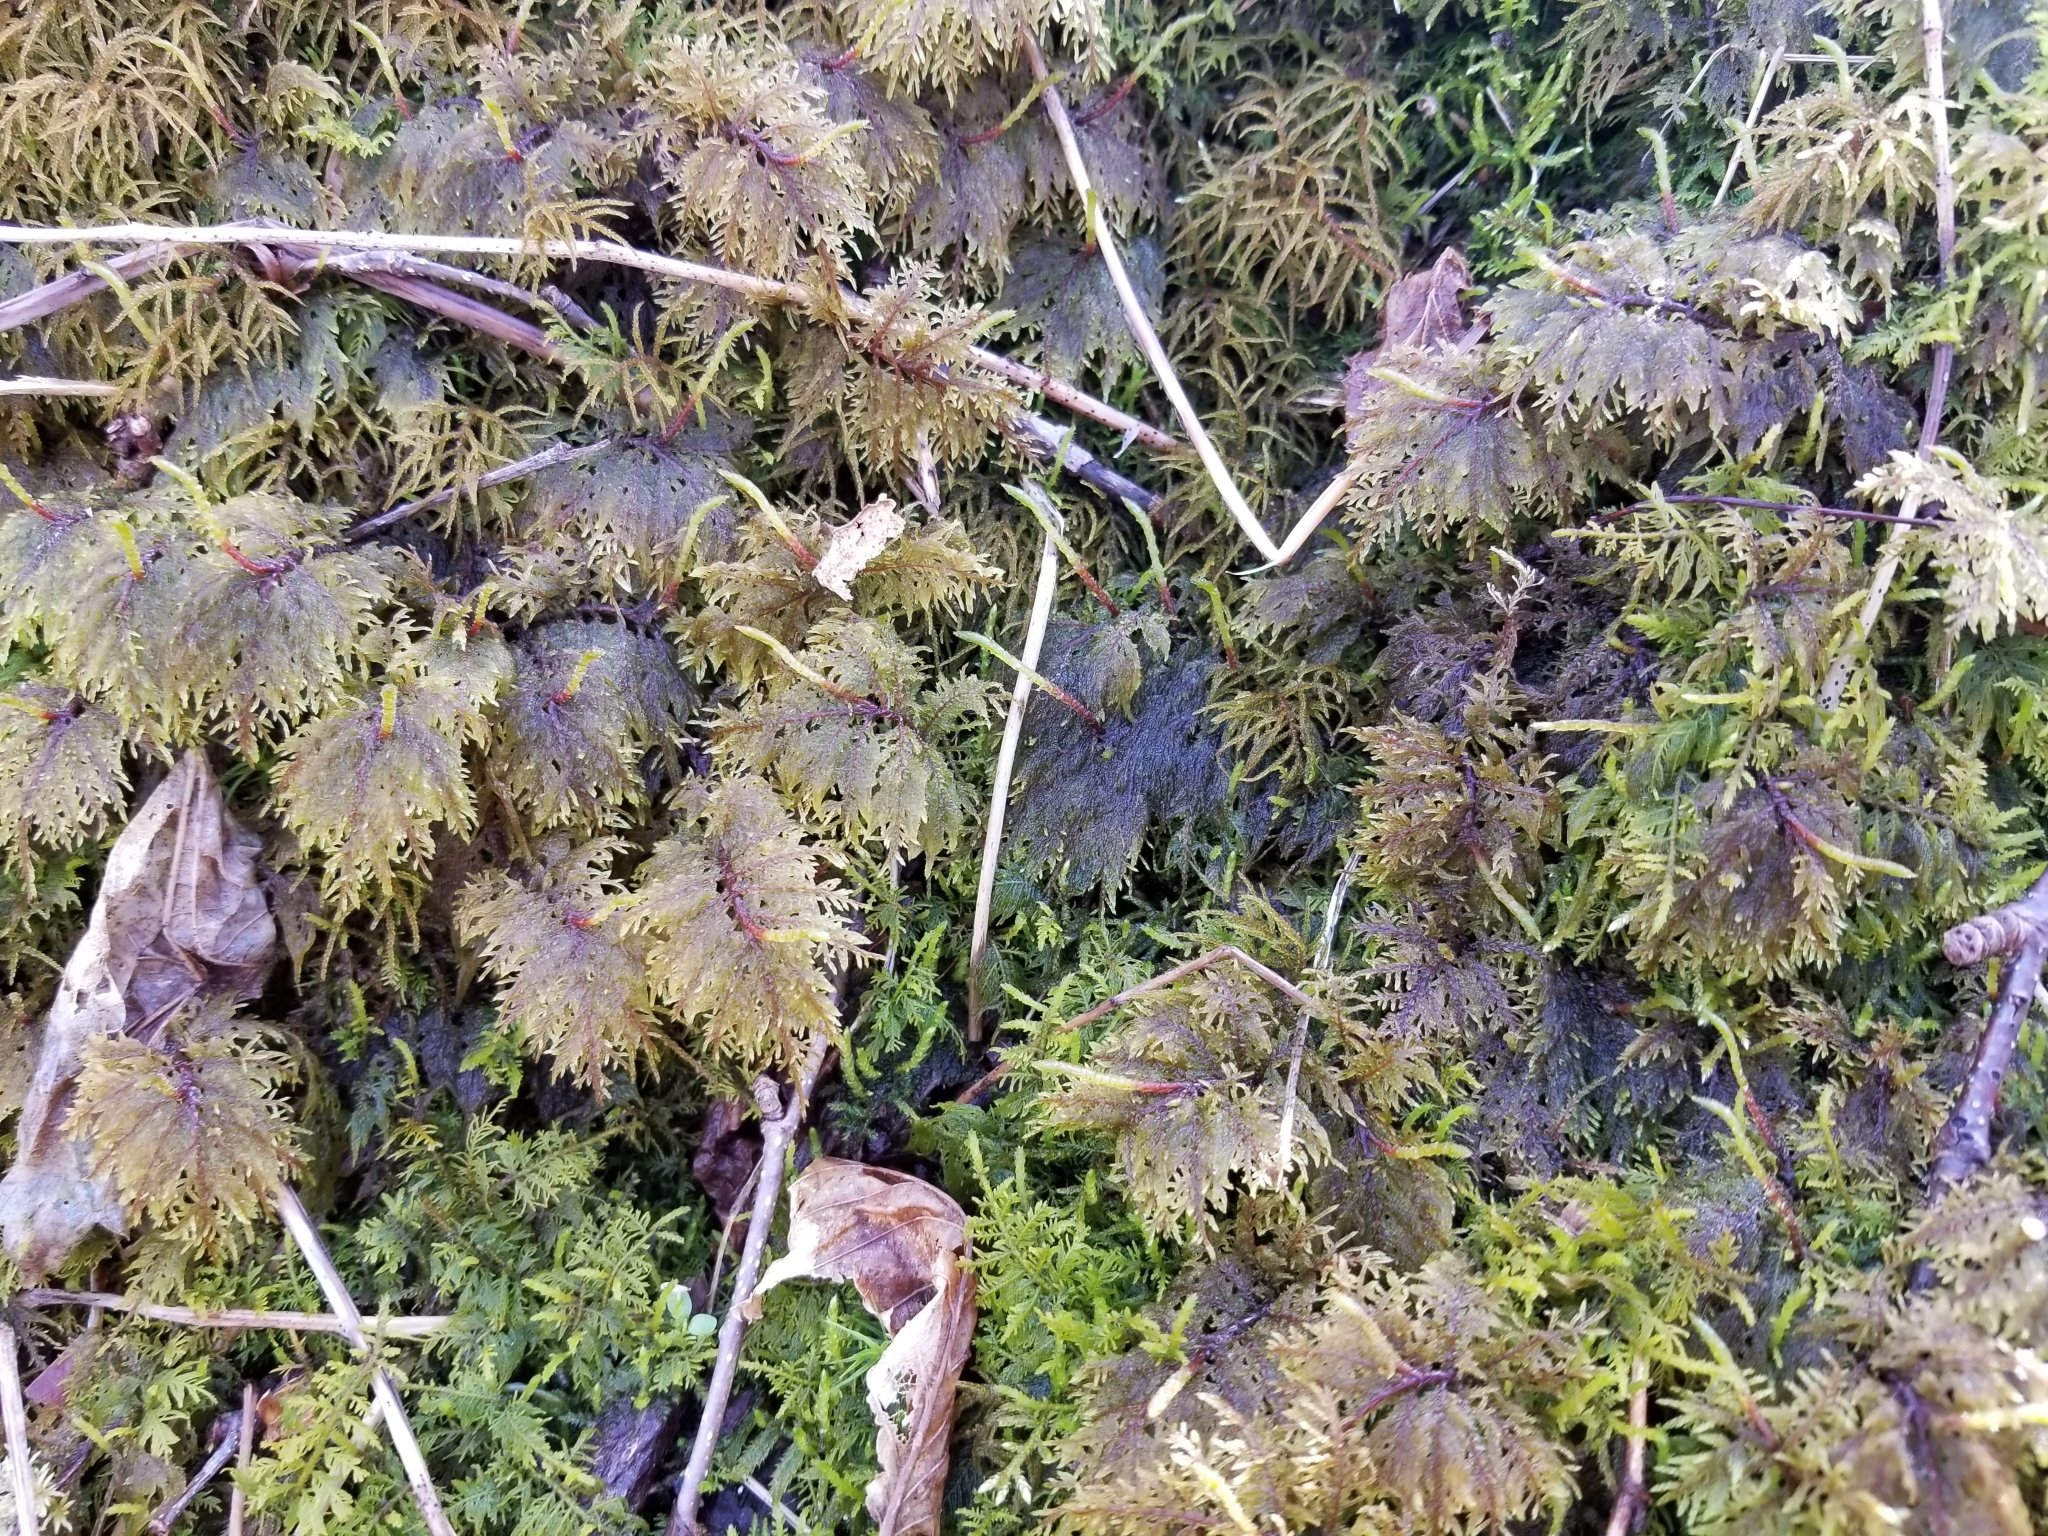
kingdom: Plantae
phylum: Bryophyta
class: Bryopsida
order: Hypnales
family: Hylocomiaceae
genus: Hylocomium
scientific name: Hylocomium splendens
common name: Stairstep moss
